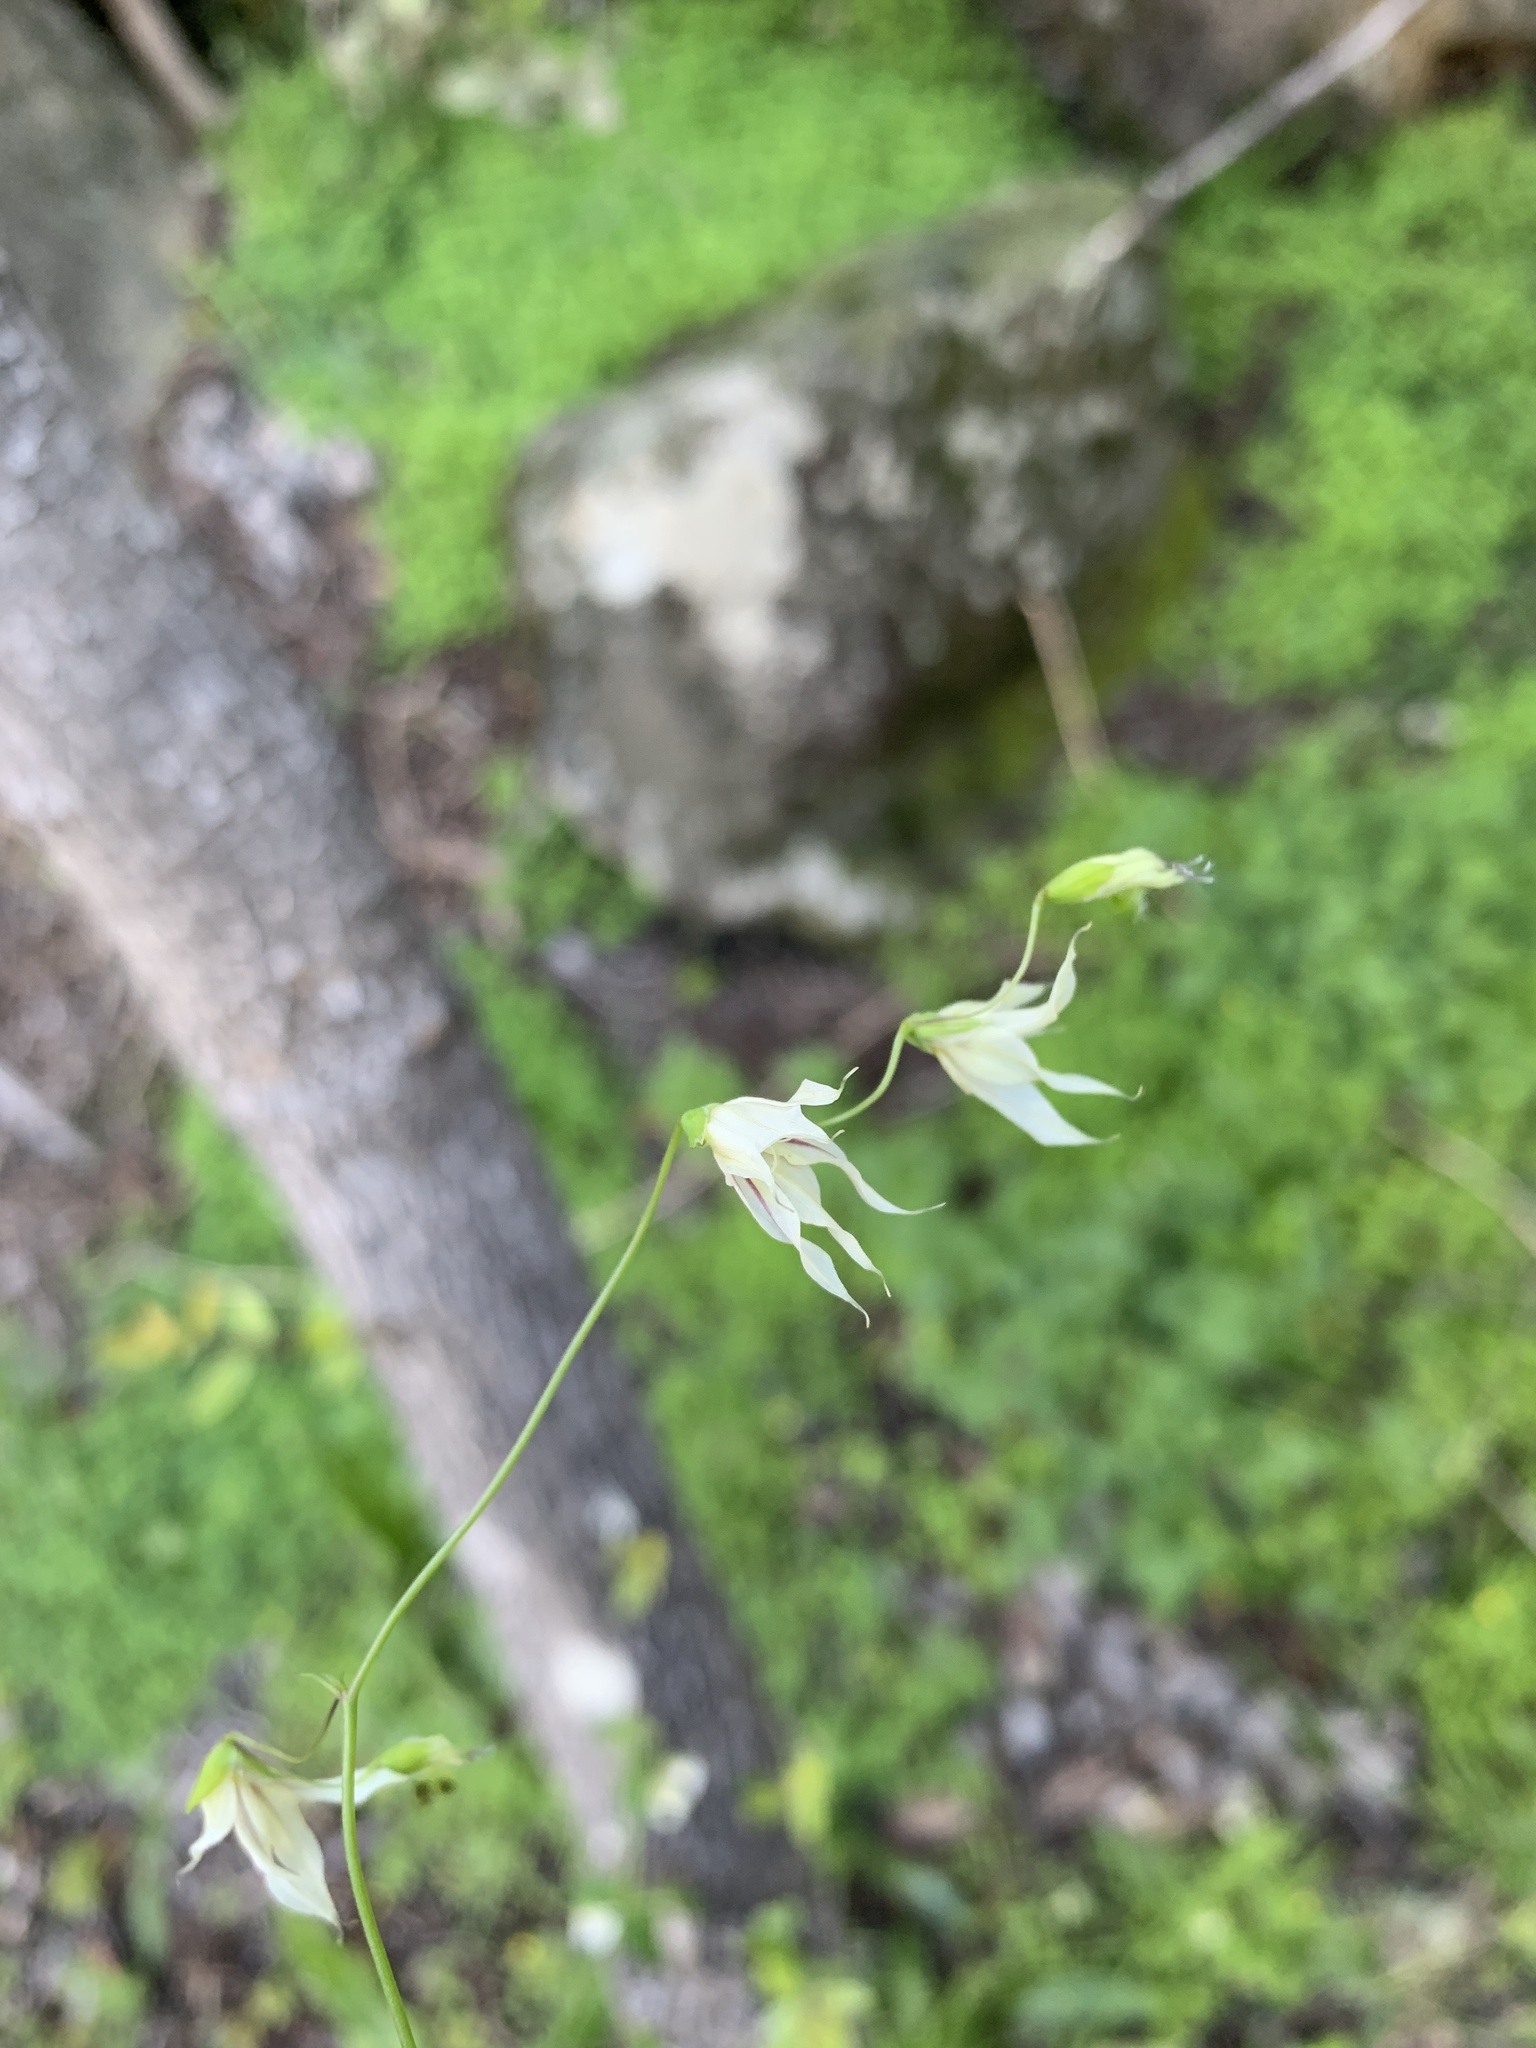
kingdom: Plantae
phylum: Tracheophyta
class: Liliopsida
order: Asparagales
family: Iridaceae
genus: Melasphaerula
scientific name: Melasphaerula graminea
